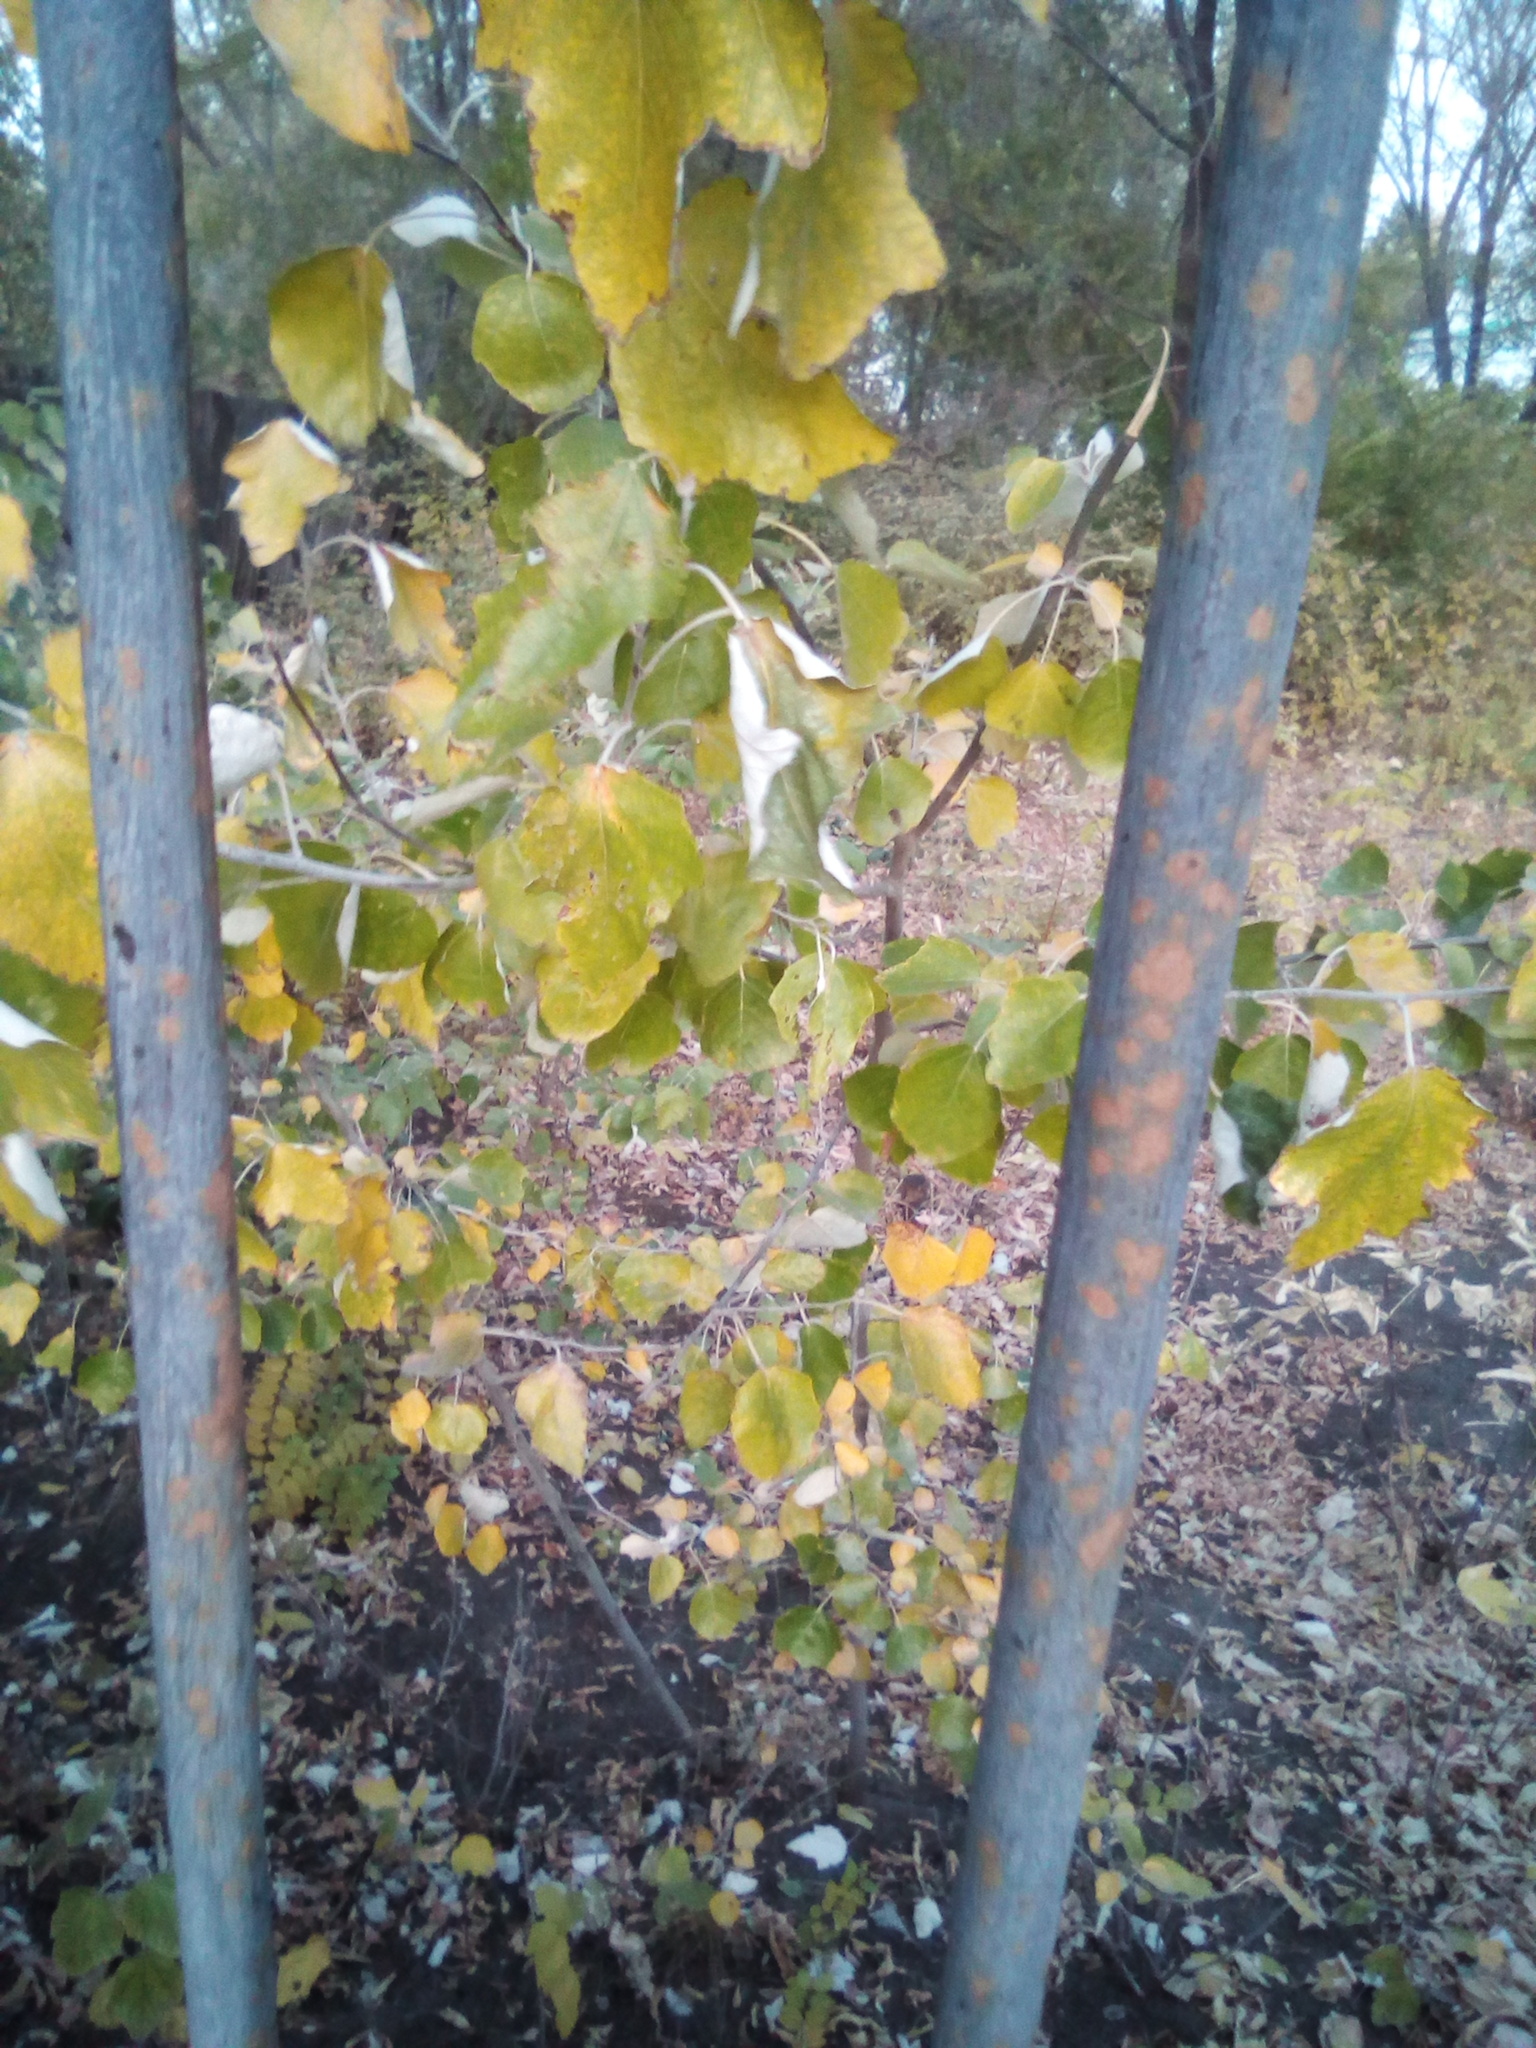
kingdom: Plantae
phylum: Tracheophyta
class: Magnoliopsida
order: Malpighiales
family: Salicaceae
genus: Populus
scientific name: Populus alba
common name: White poplar
